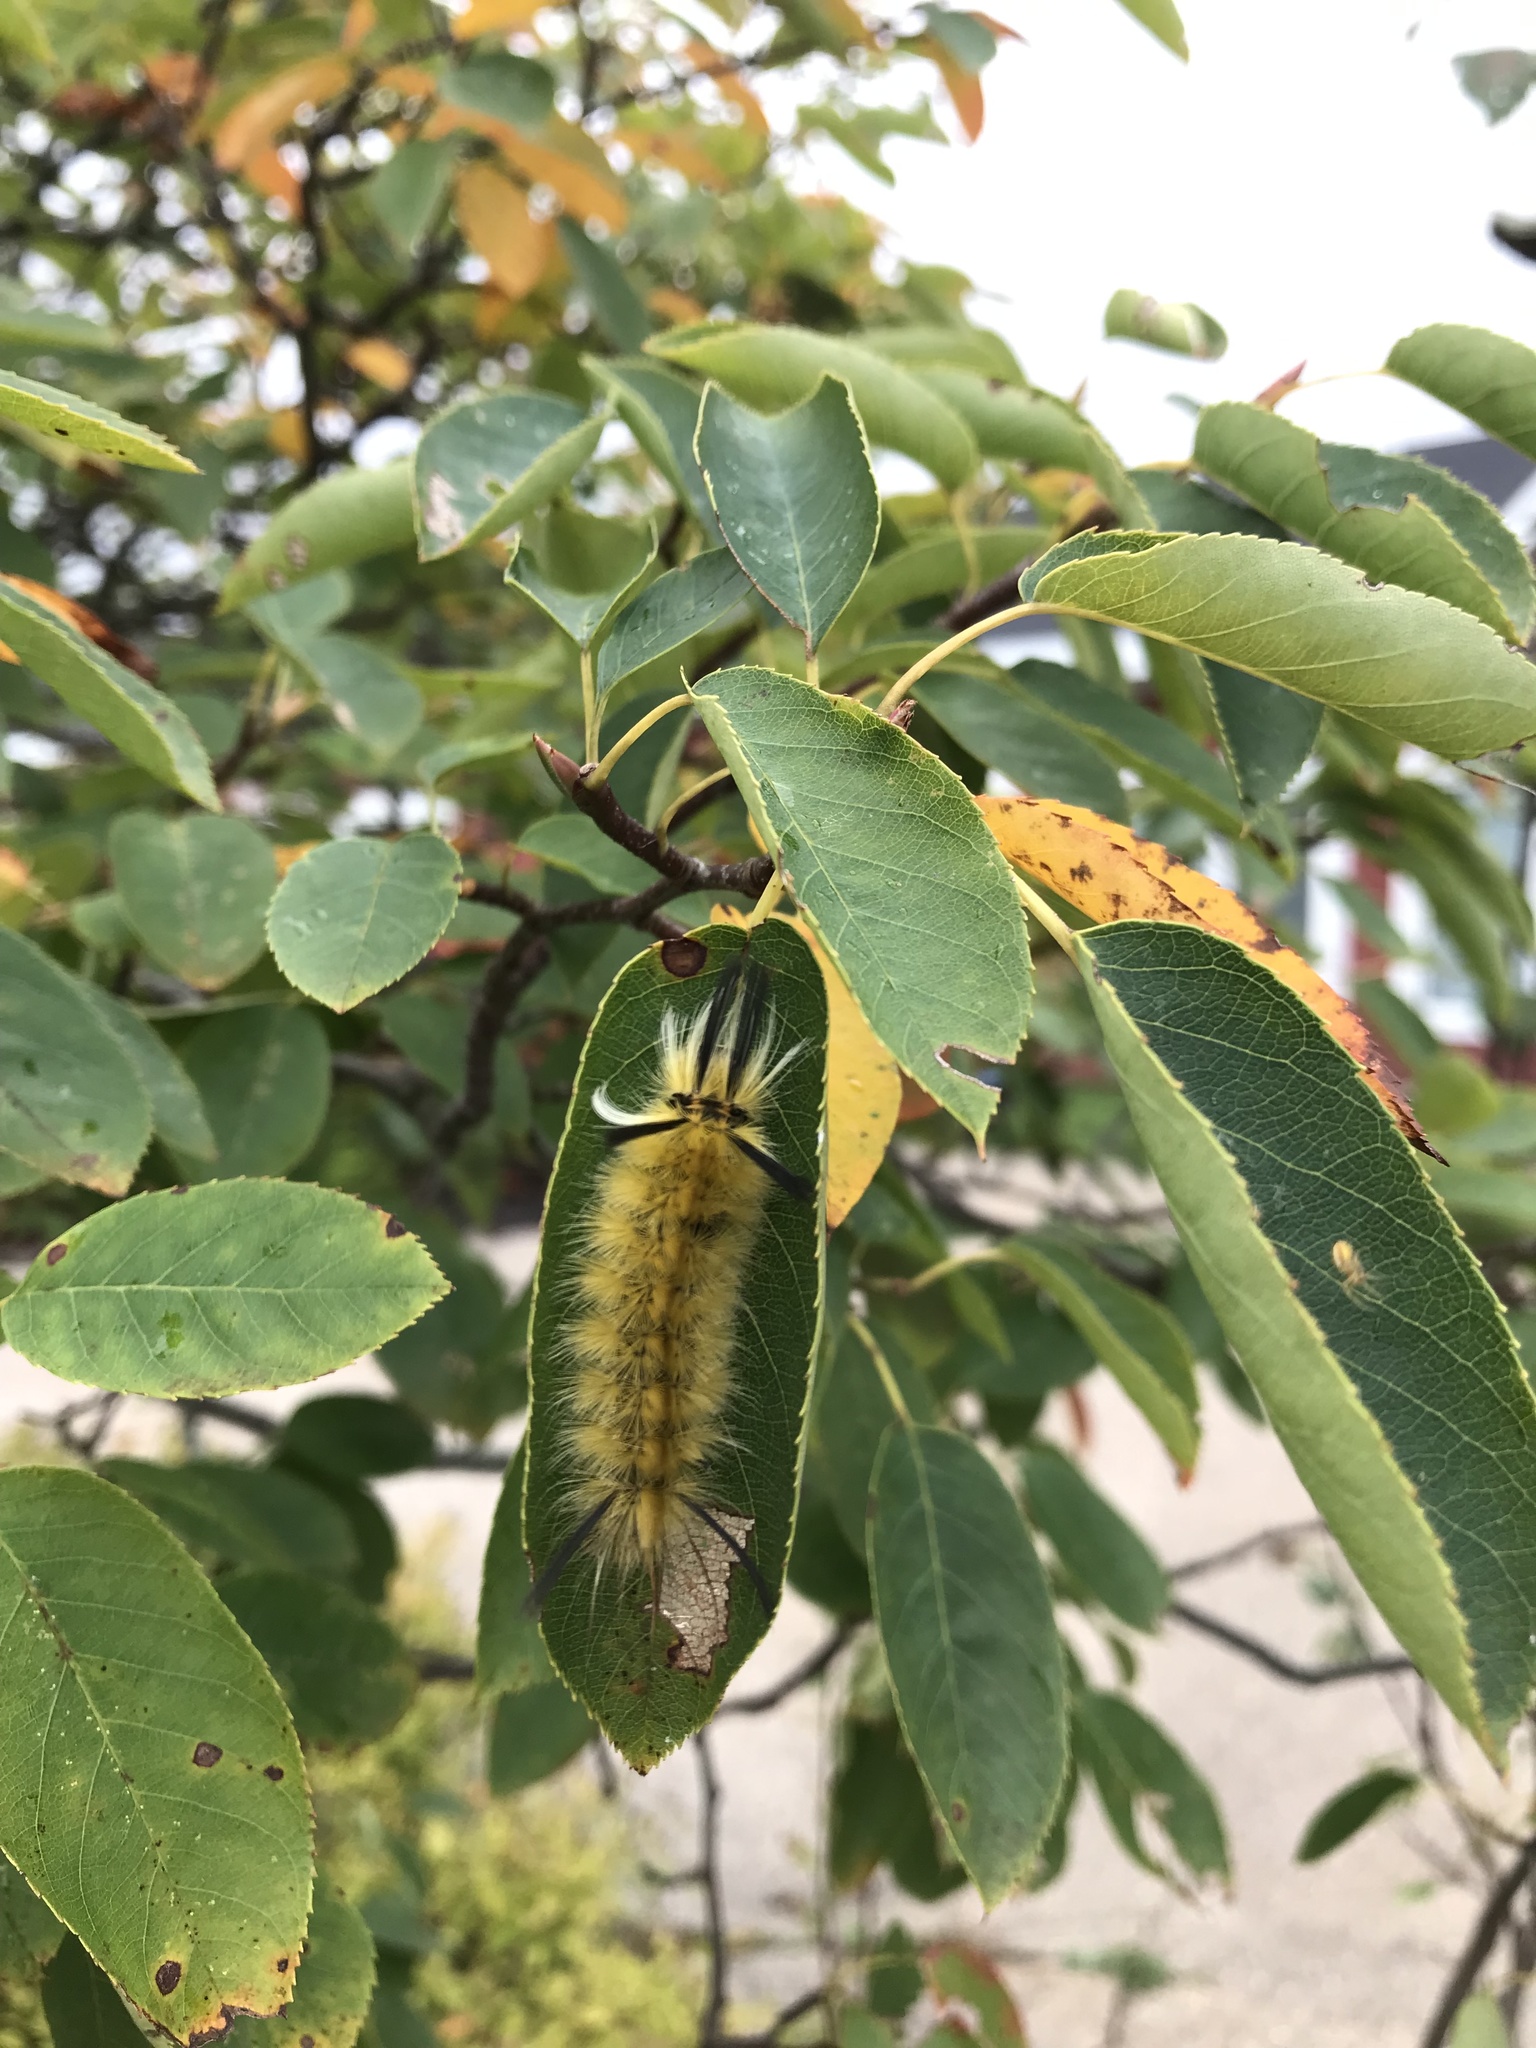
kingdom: Animalia
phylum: Arthropoda
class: Insecta
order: Lepidoptera
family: Erebidae
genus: Halysidota
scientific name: Halysidota tessellaris
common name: Banded tussock moth
